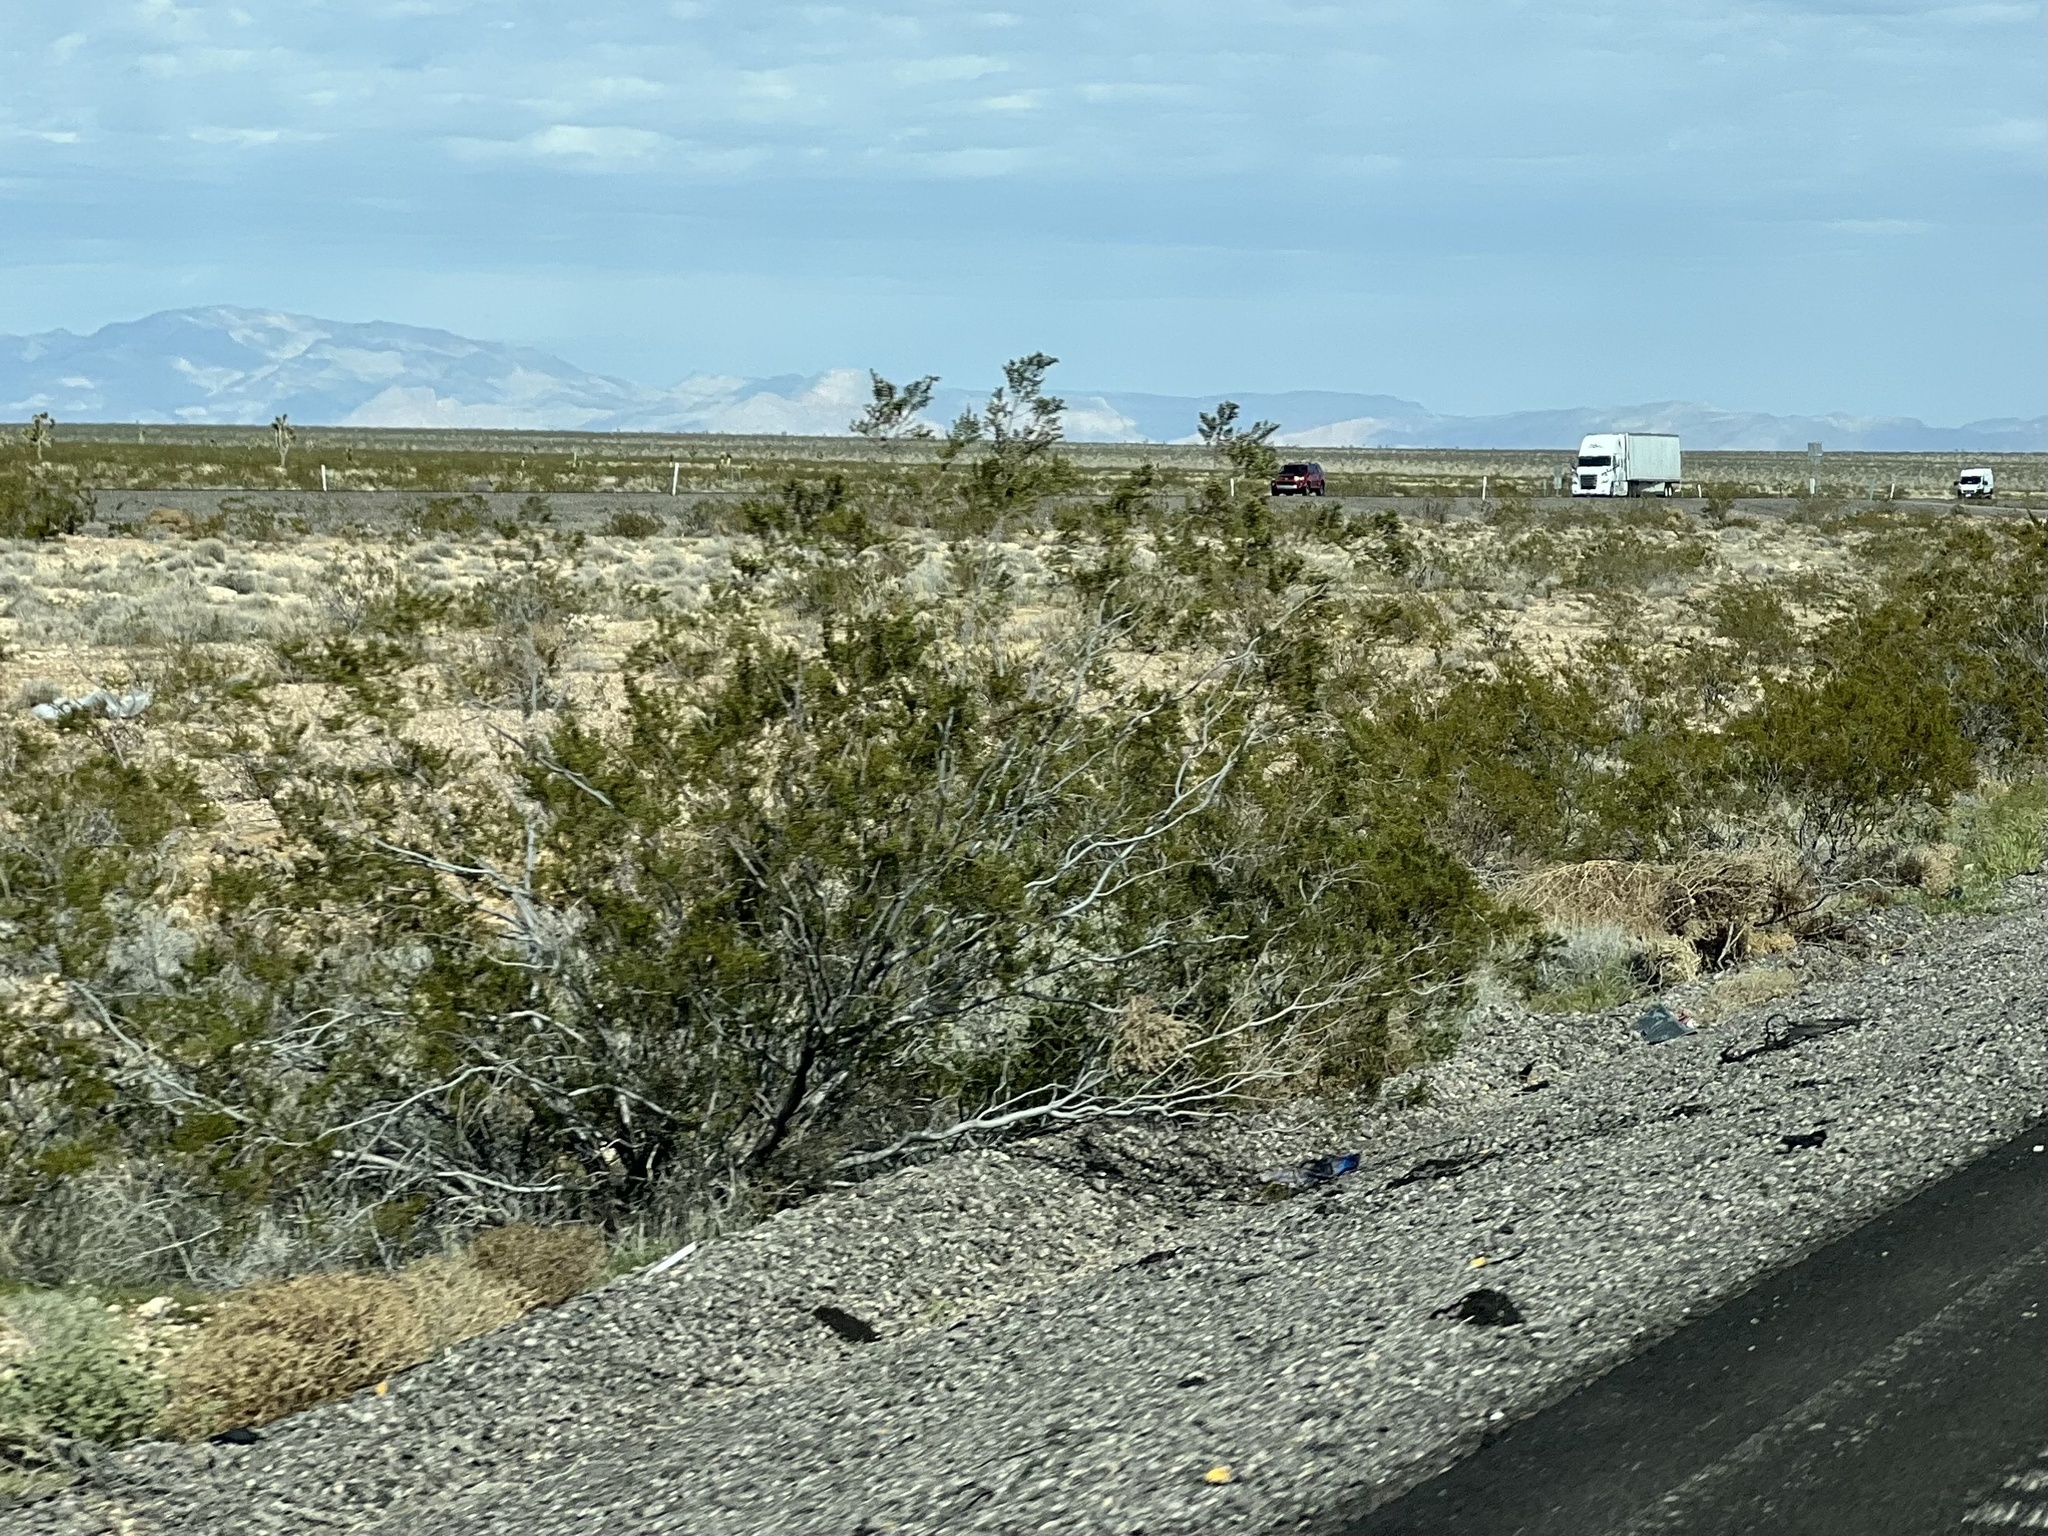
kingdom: Plantae
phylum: Tracheophyta
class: Magnoliopsida
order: Zygophyllales
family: Zygophyllaceae
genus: Larrea
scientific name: Larrea tridentata
